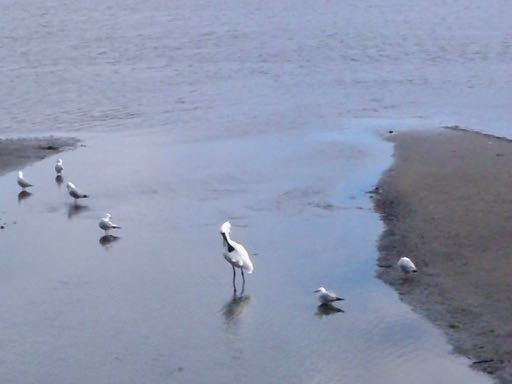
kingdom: Animalia
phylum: Chordata
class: Aves
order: Pelecaniformes
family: Threskiornithidae
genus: Platalea
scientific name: Platalea regia
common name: Royal spoonbill
